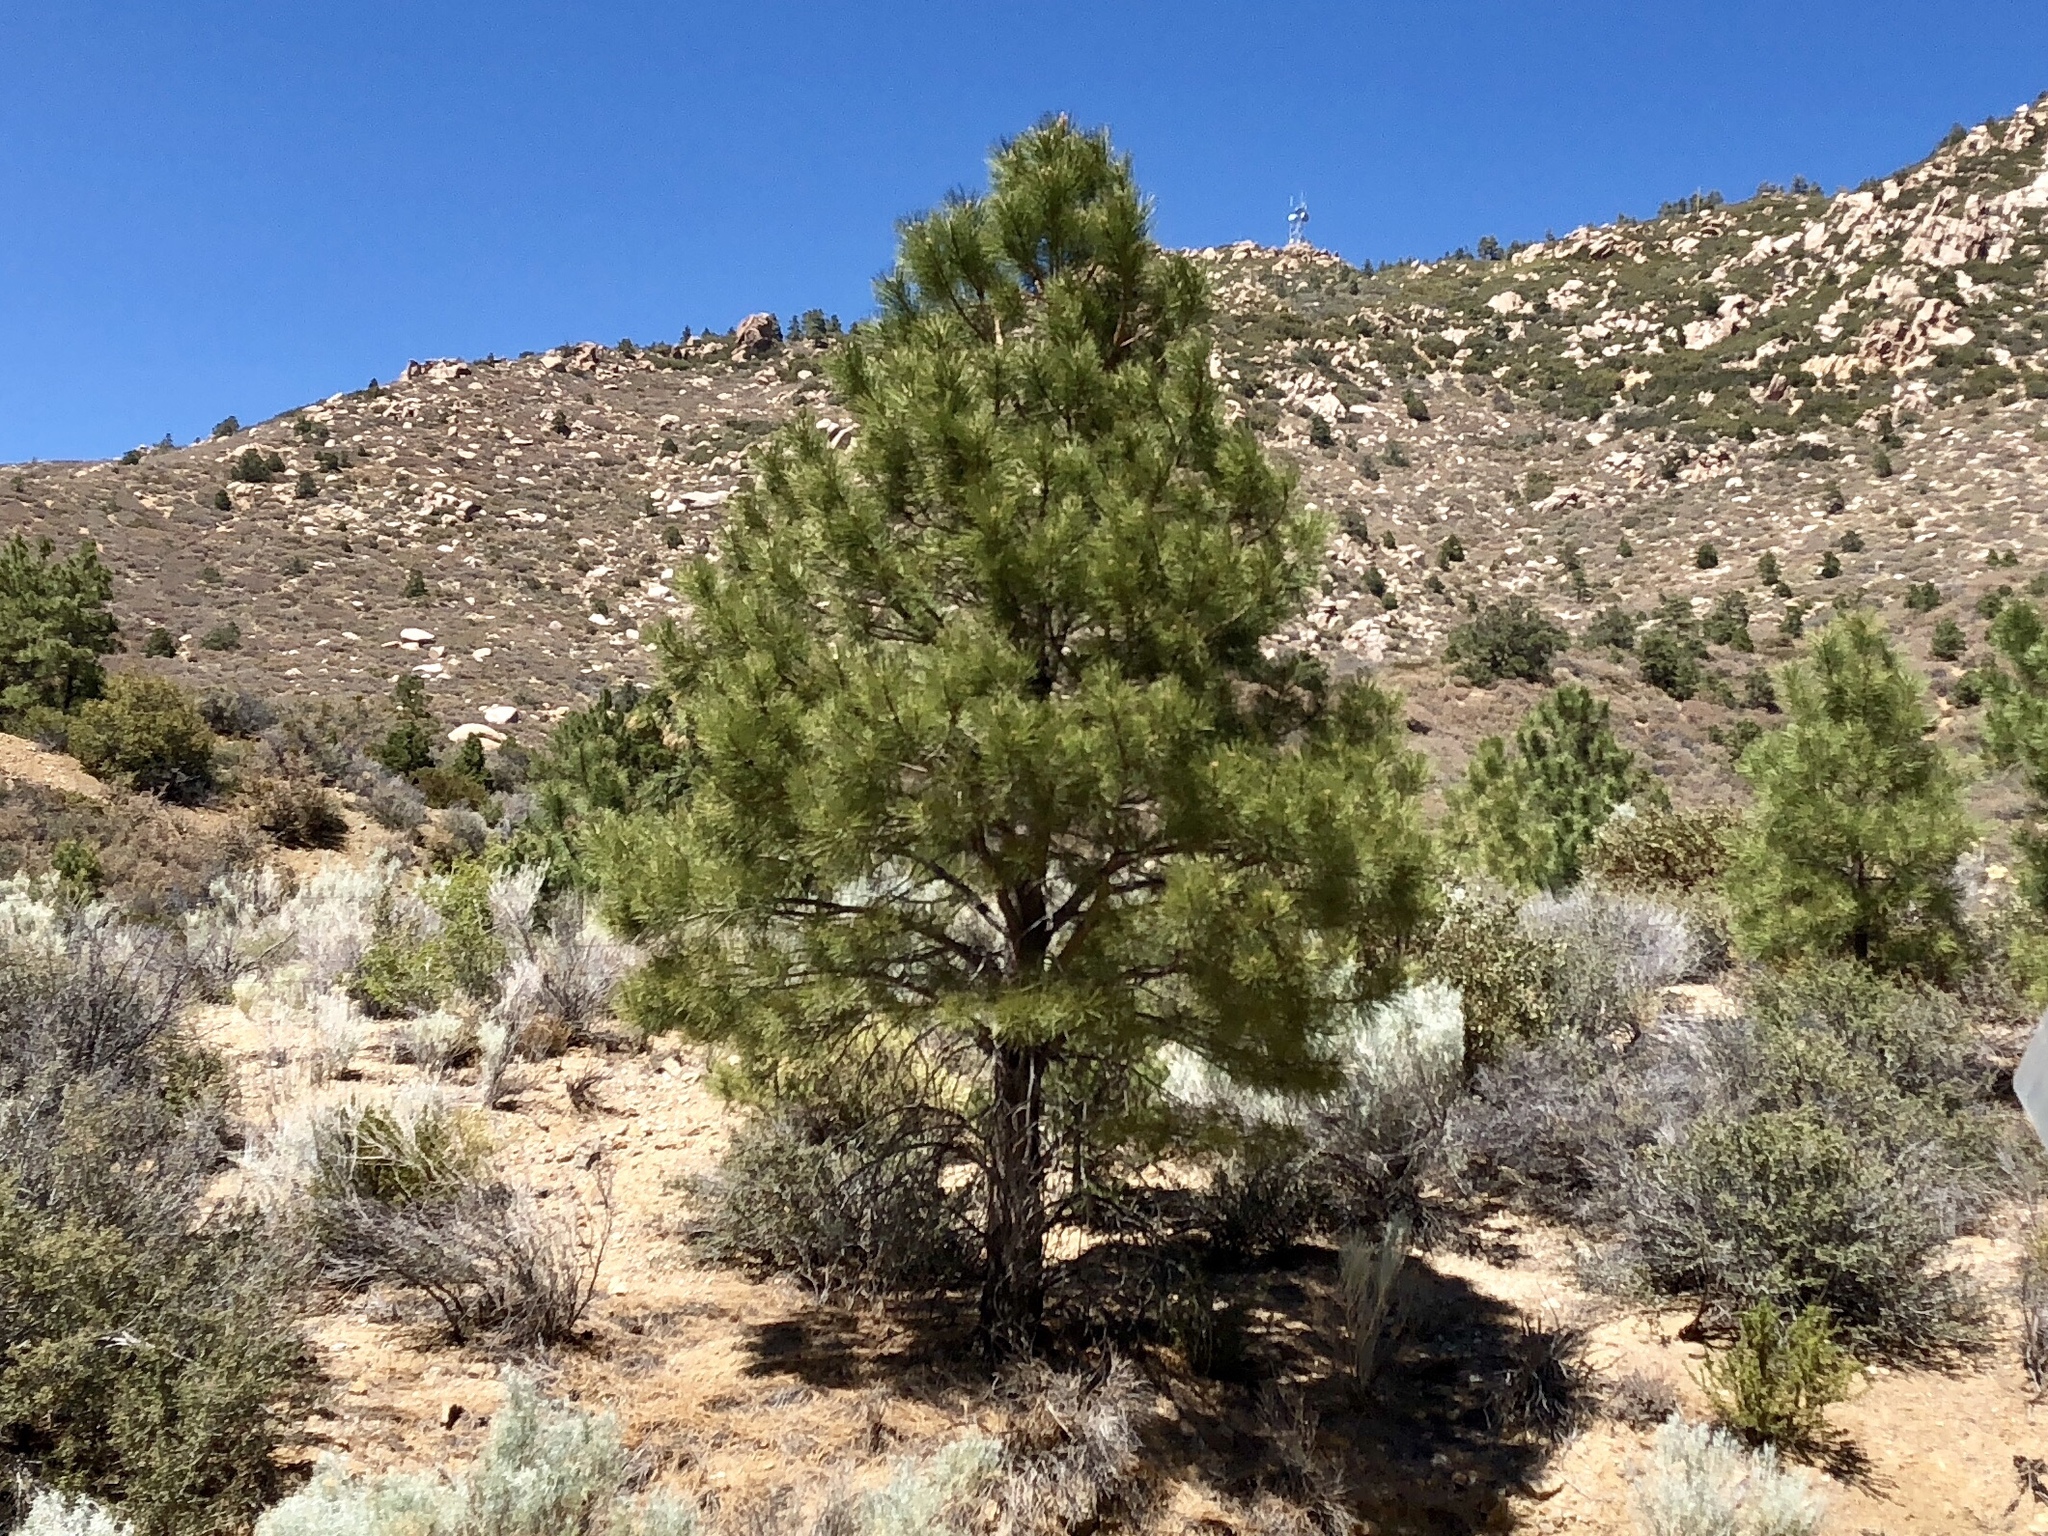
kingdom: Plantae
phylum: Tracheophyta
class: Pinopsida
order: Pinales
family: Pinaceae
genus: Pinus
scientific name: Pinus ponderosa
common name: Western yellow-pine
